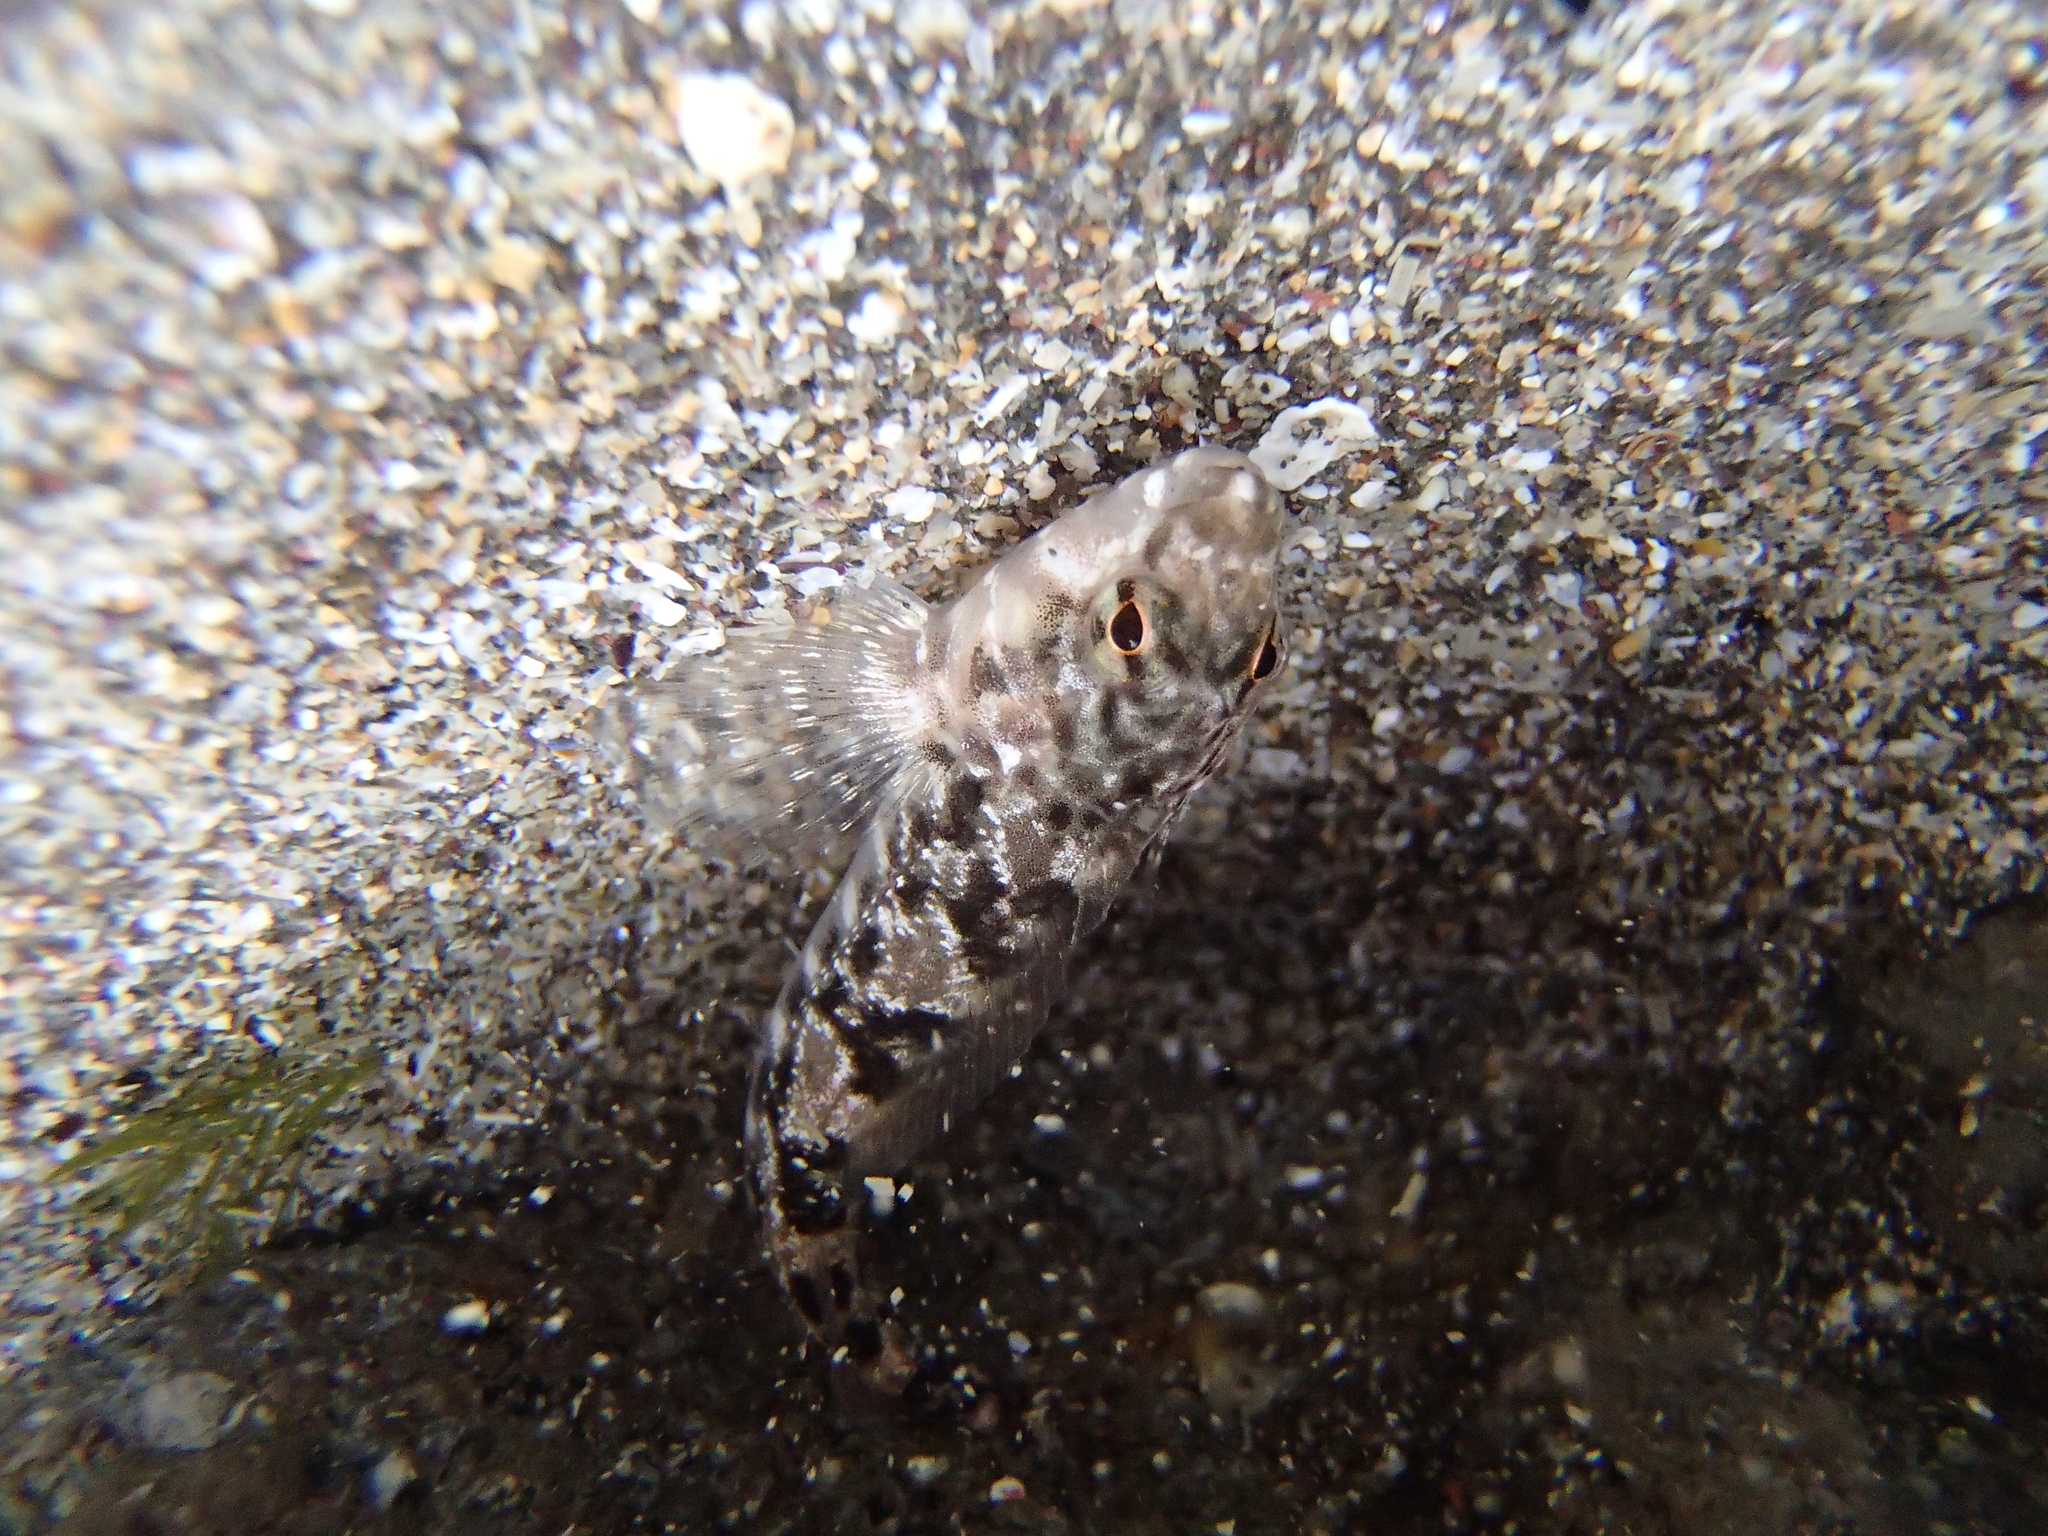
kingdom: Animalia
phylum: Chordata
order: Perciformes
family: Tripterygiidae
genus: Bellapiscis
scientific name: Bellapiscis medius
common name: Twister
